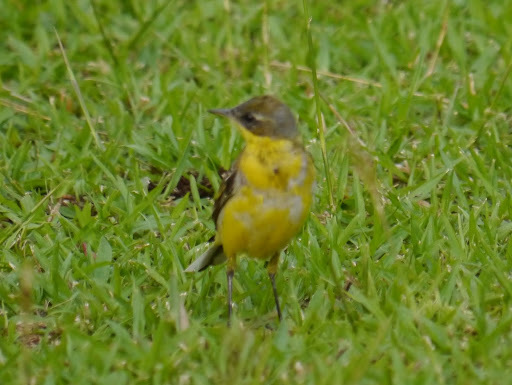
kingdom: Animalia
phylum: Chordata
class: Aves
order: Passeriformes
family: Motacillidae
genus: Motacilla
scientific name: Motacilla flava
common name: Western yellow wagtail
